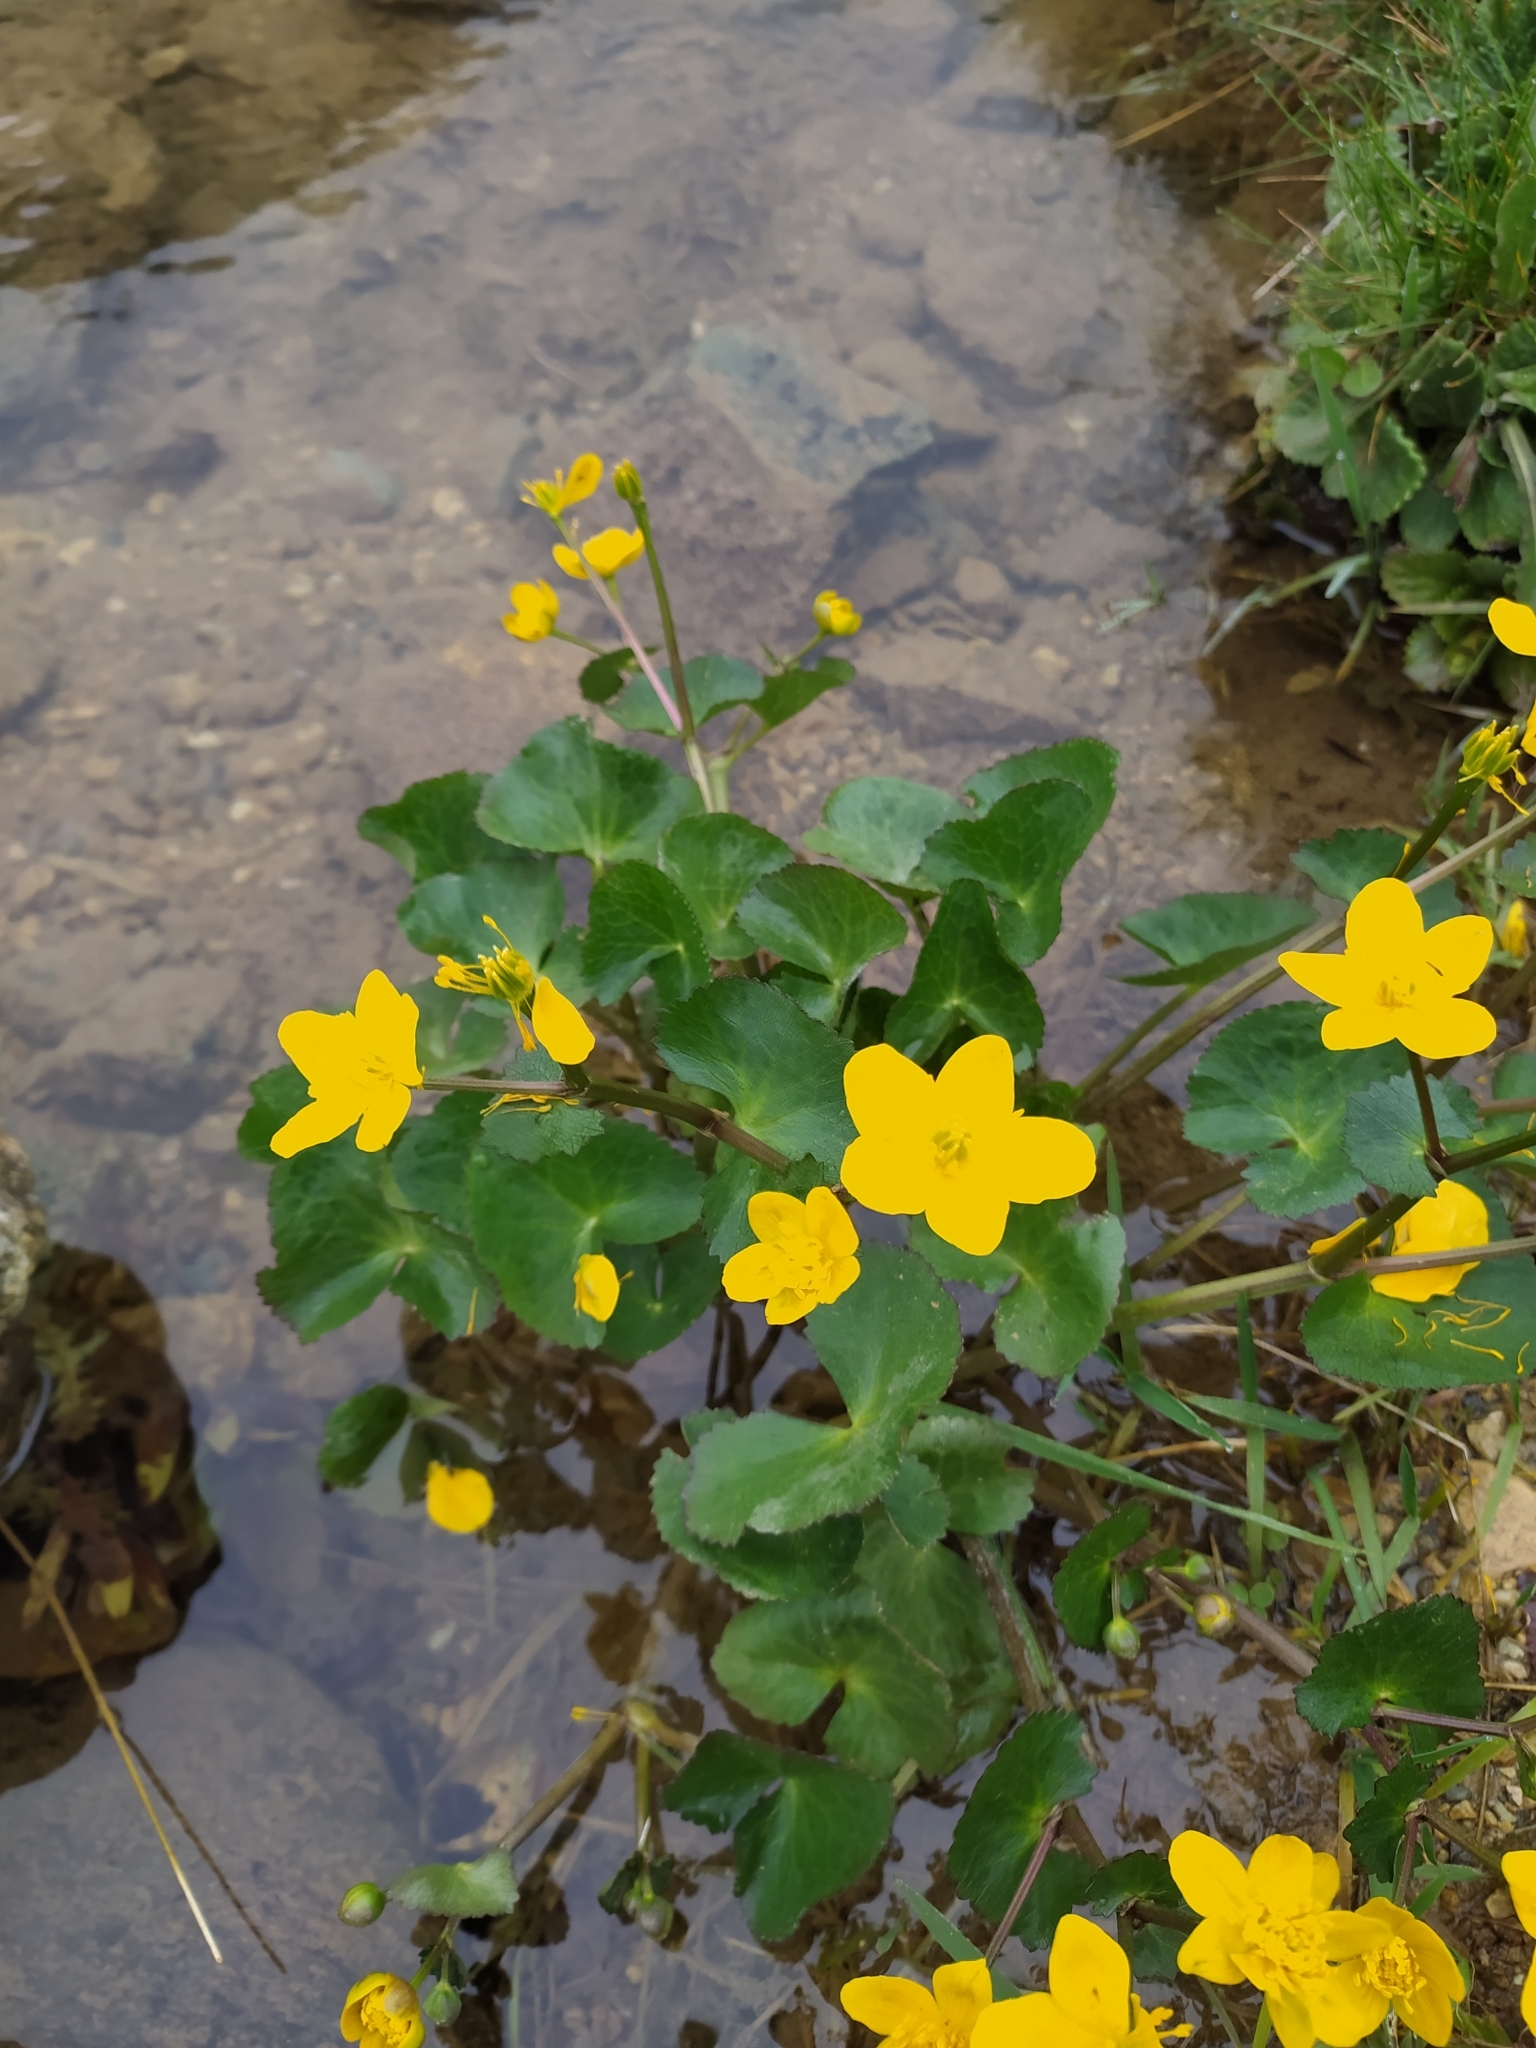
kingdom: Plantae
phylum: Tracheophyta
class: Magnoliopsida
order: Ranunculales
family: Ranunculaceae
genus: Caltha
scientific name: Caltha palustris
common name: Marsh marigold
